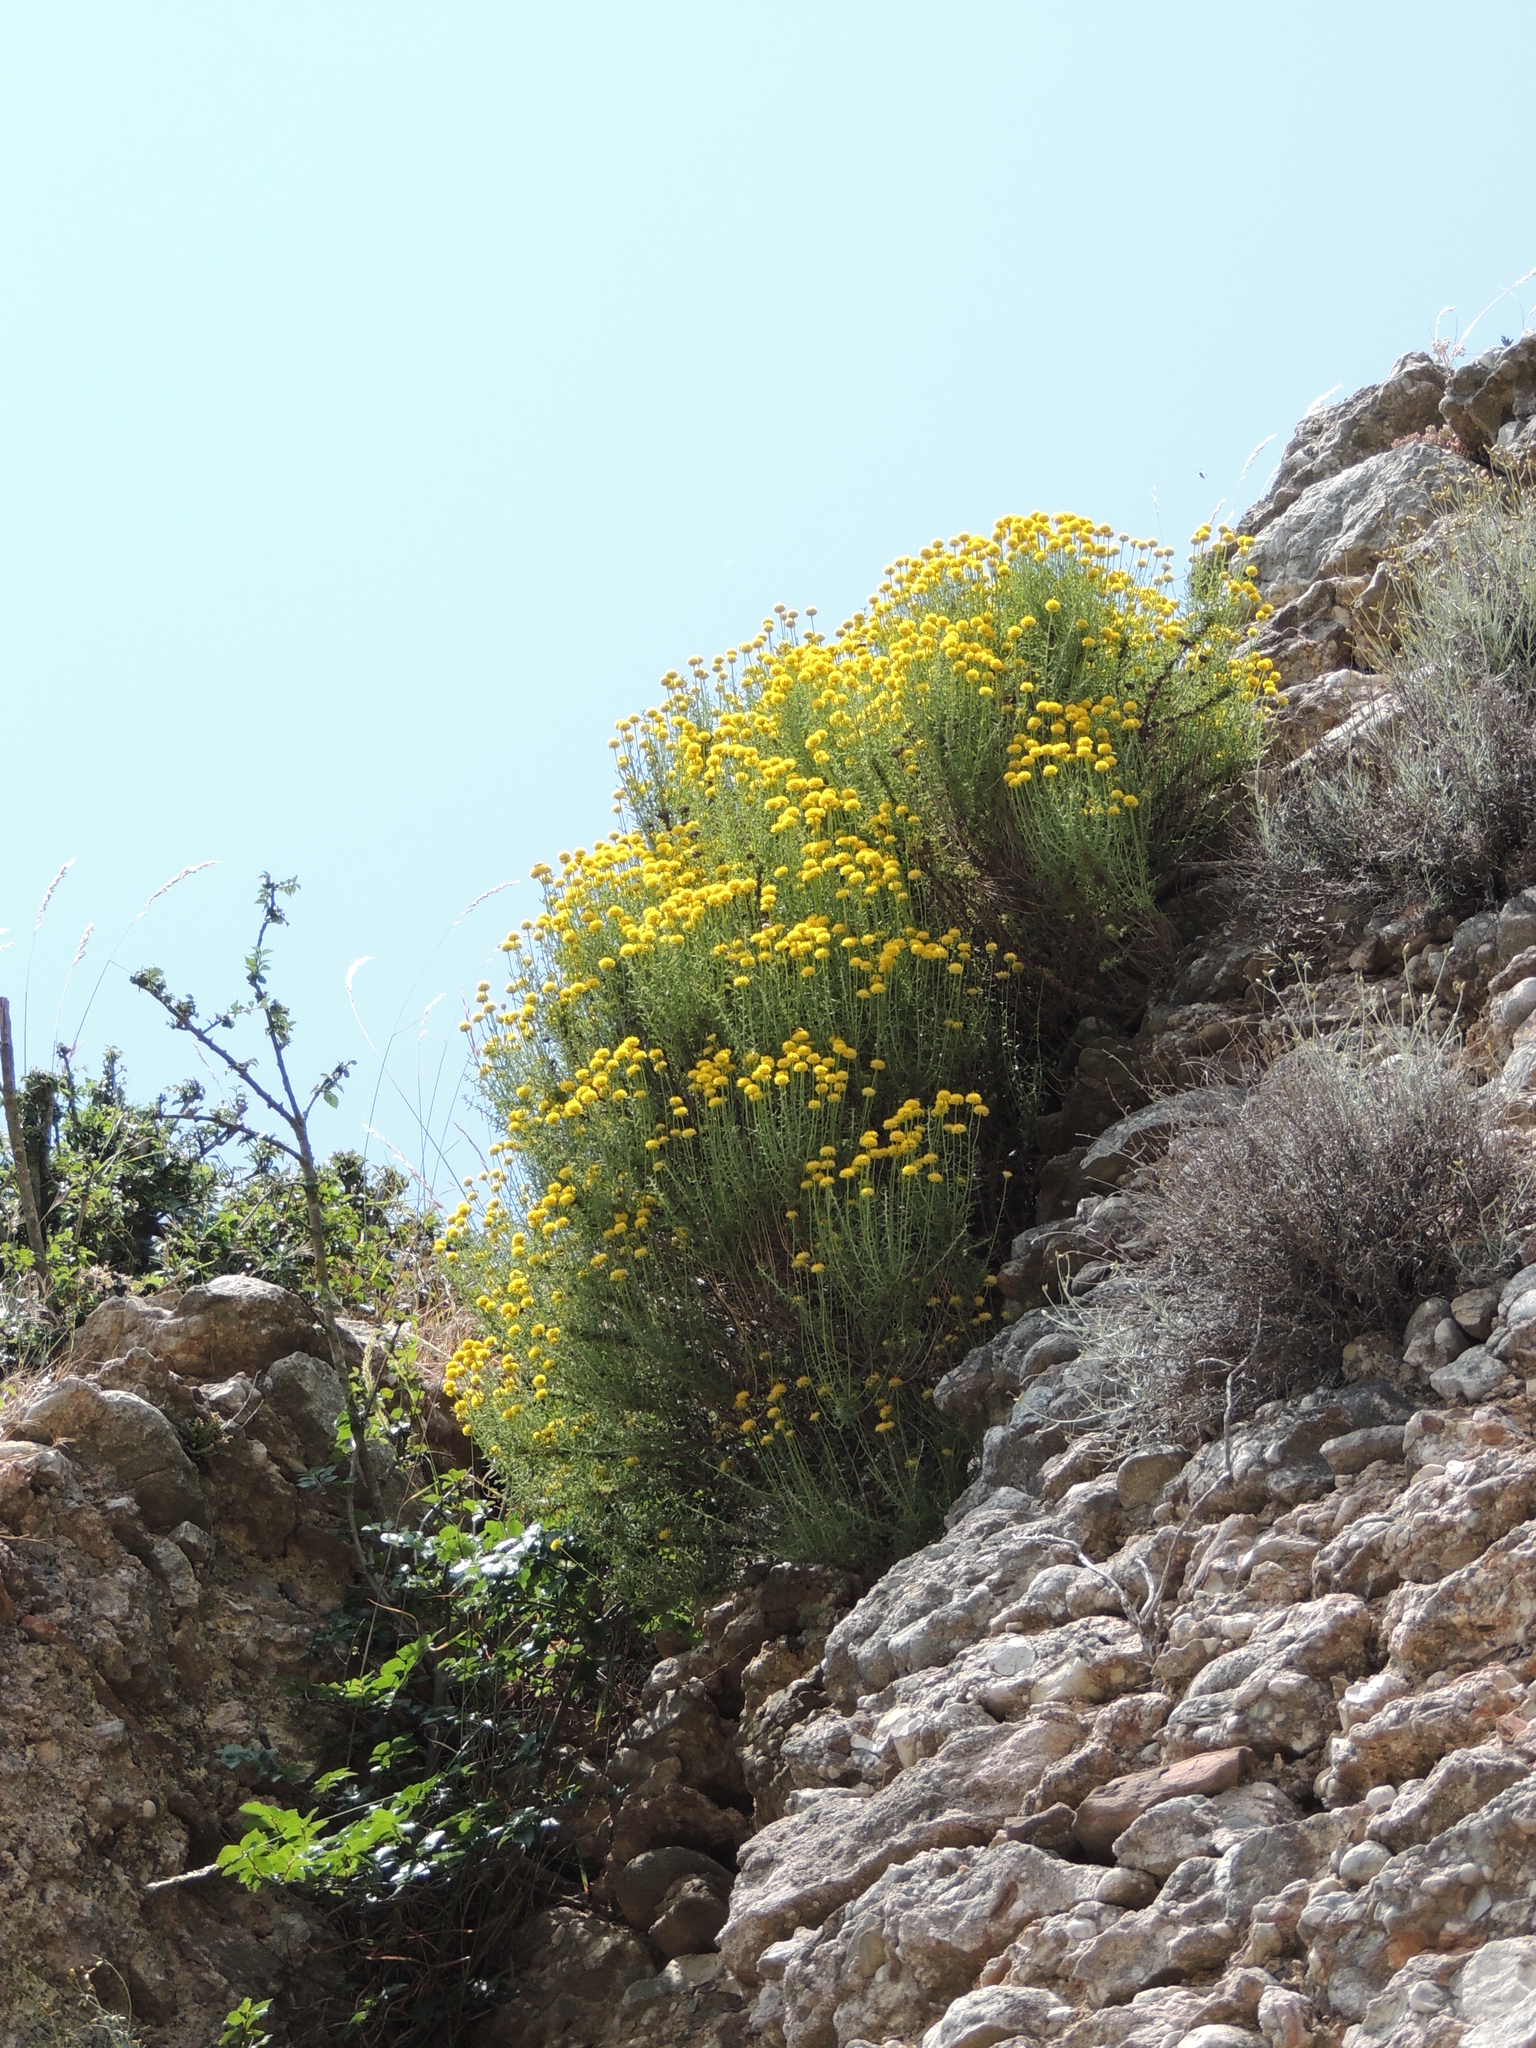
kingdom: Plantae
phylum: Tracheophyta
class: Magnoliopsida
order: Asterales
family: Asteraceae
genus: Santolina
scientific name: Santolina chamaecyparissus
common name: Lavender-cotton
